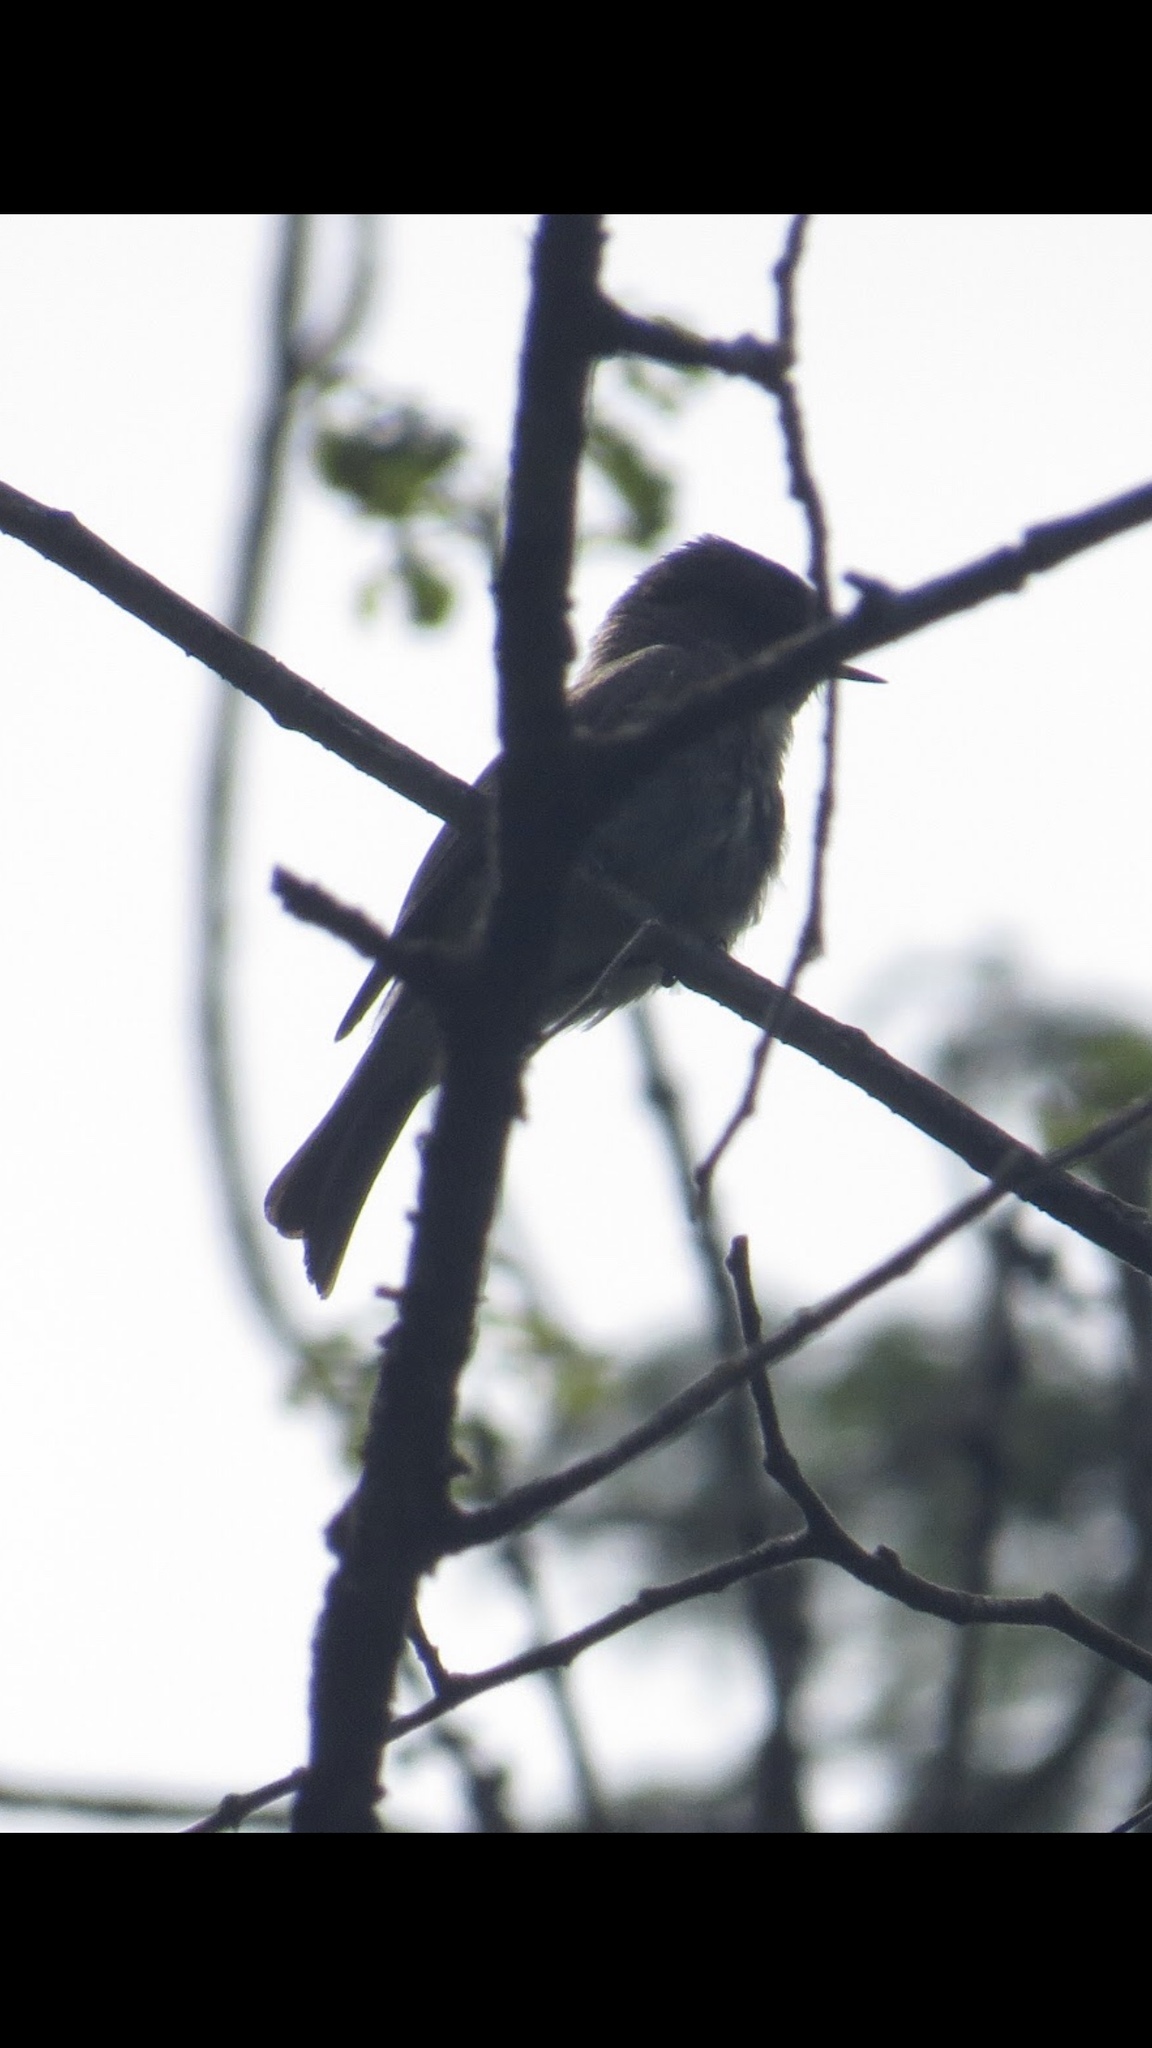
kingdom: Animalia
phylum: Chordata
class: Aves
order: Passeriformes
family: Tyrannidae
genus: Sayornis
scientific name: Sayornis phoebe
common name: Eastern phoebe
